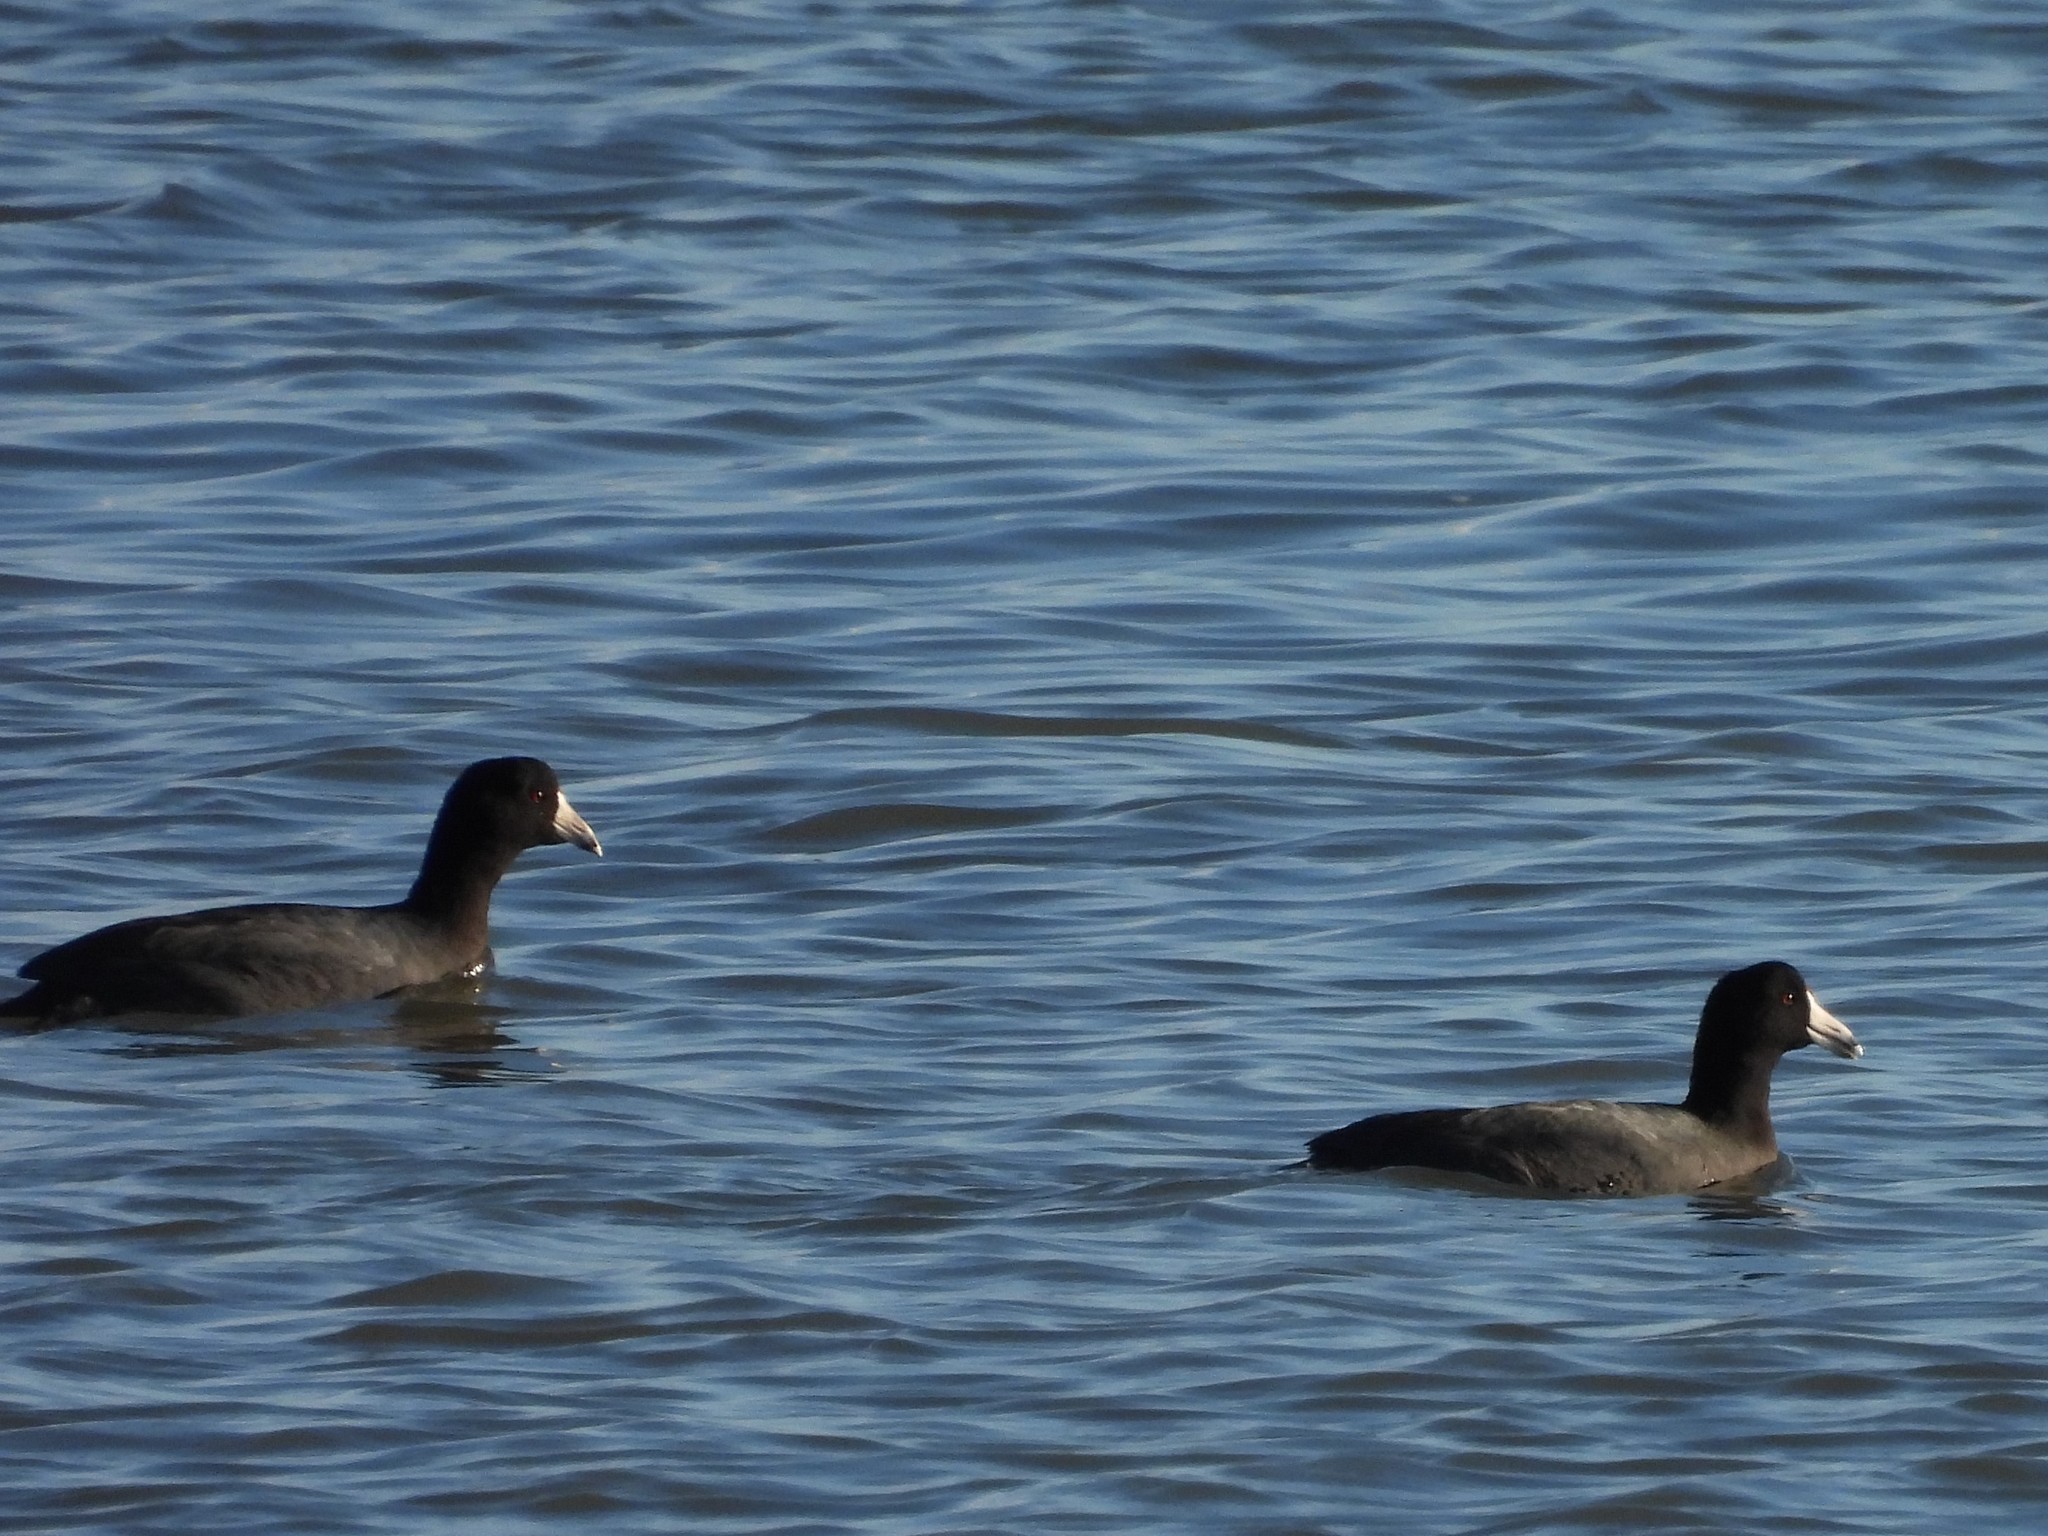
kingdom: Animalia
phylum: Chordata
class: Aves
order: Gruiformes
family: Rallidae
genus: Fulica
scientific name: Fulica americana
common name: American coot
